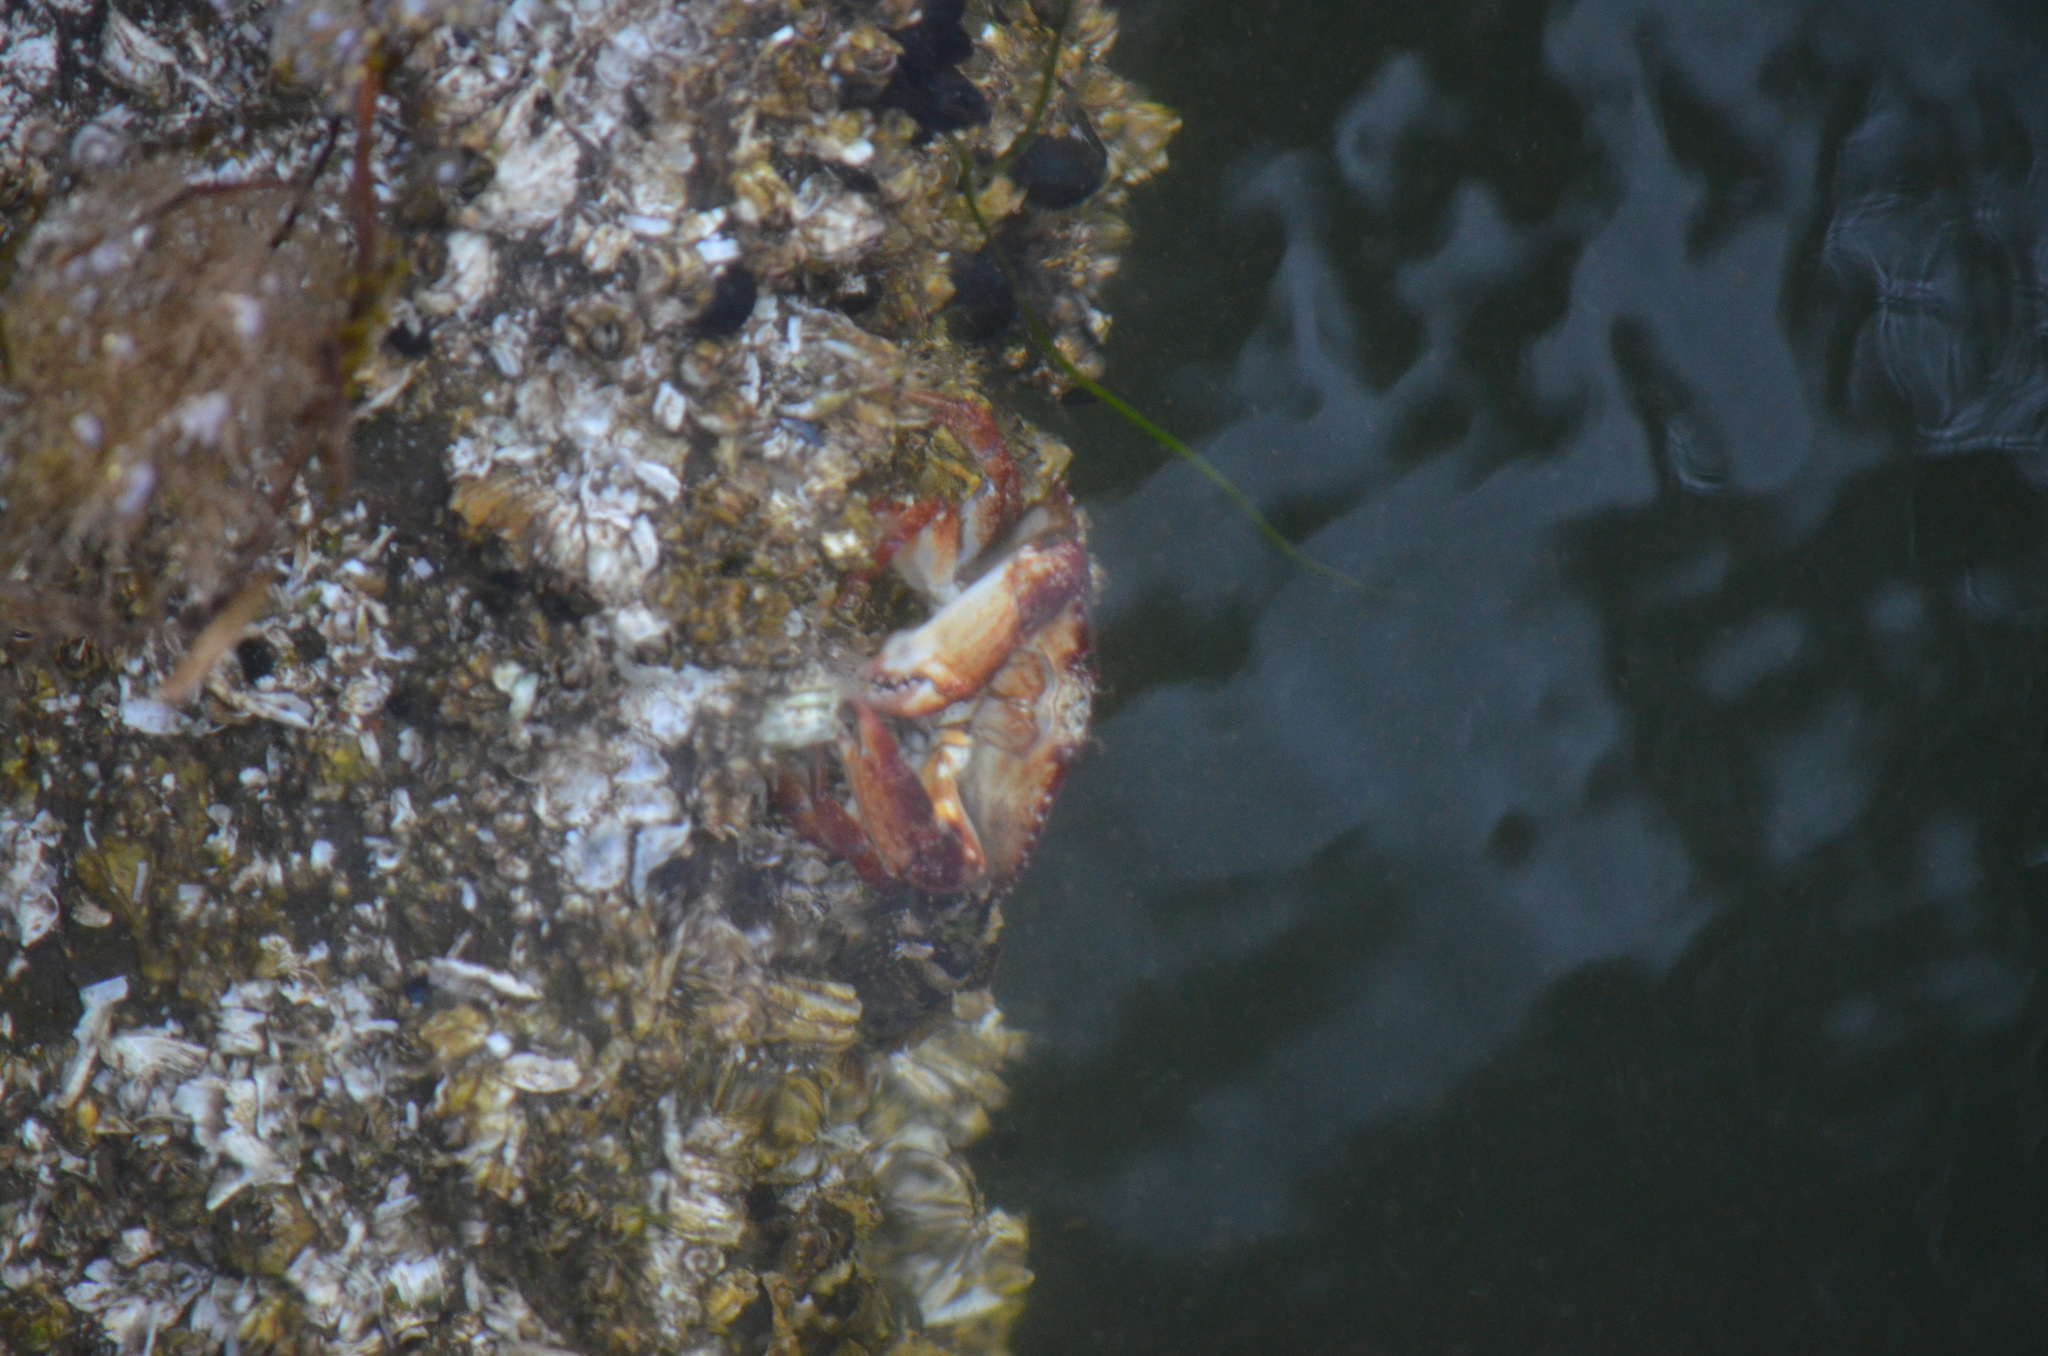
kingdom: Animalia
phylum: Arthropoda
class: Malacostraca
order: Decapoda
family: Cancridae
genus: Cancer
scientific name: Cancer productus
